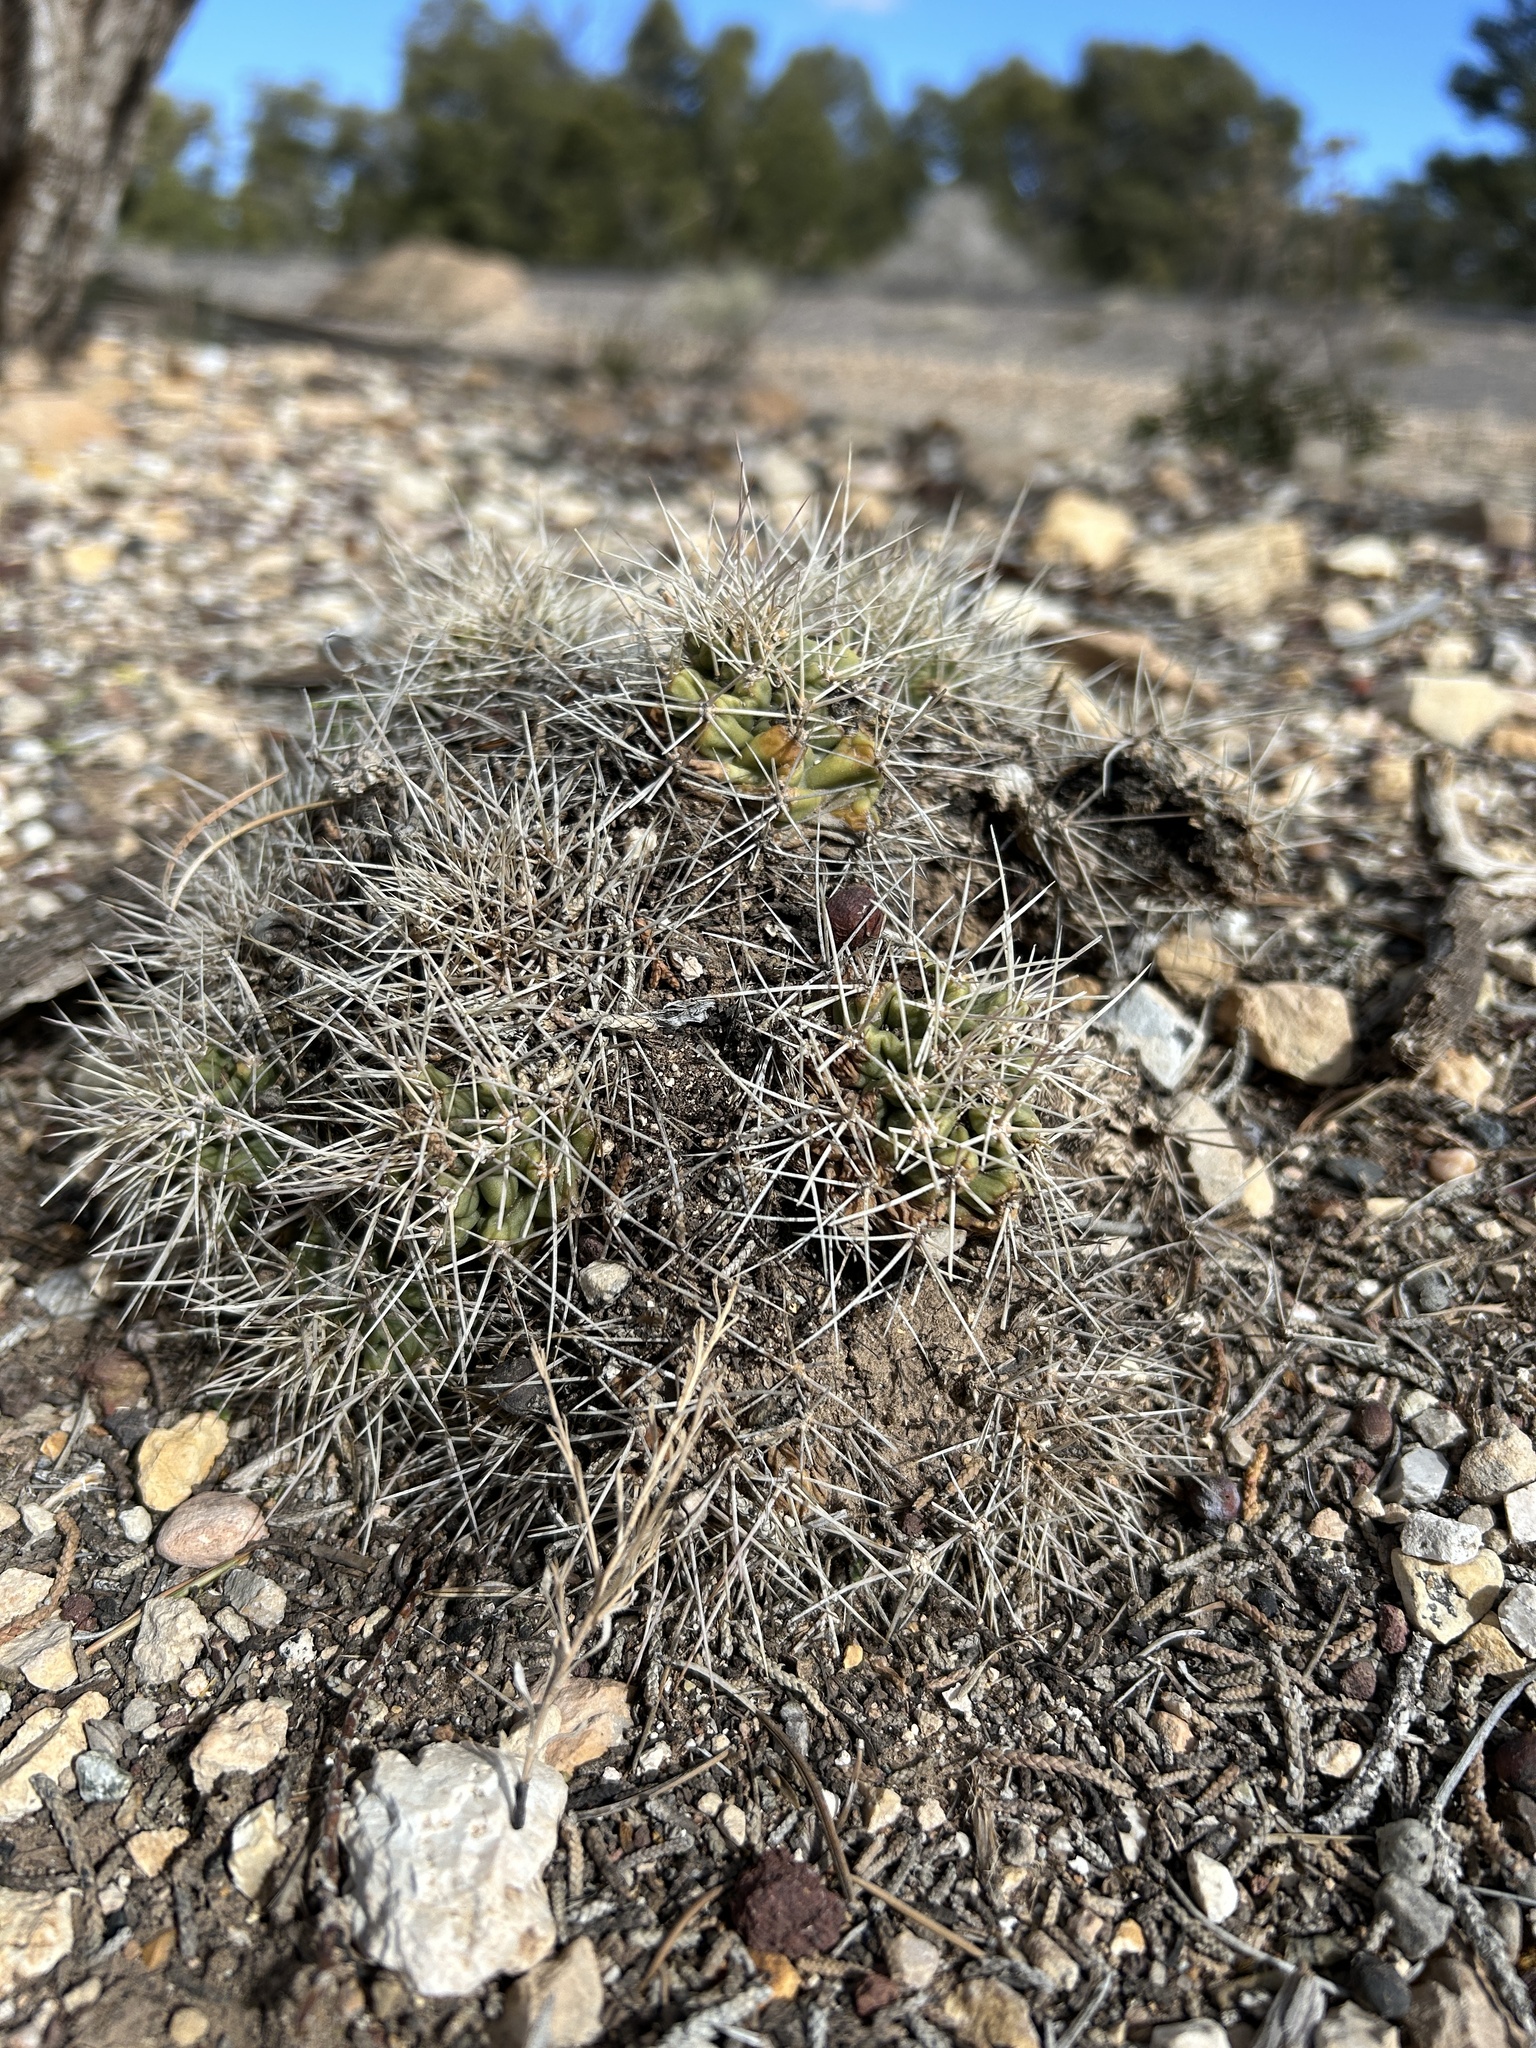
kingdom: Plantae
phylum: Tracheophyta
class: Magnoliopsida
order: Caryophyllales
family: Cactaceae
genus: Echinocereus
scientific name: Echinocereus triglochidiatus
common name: Claretcup hedgehog
